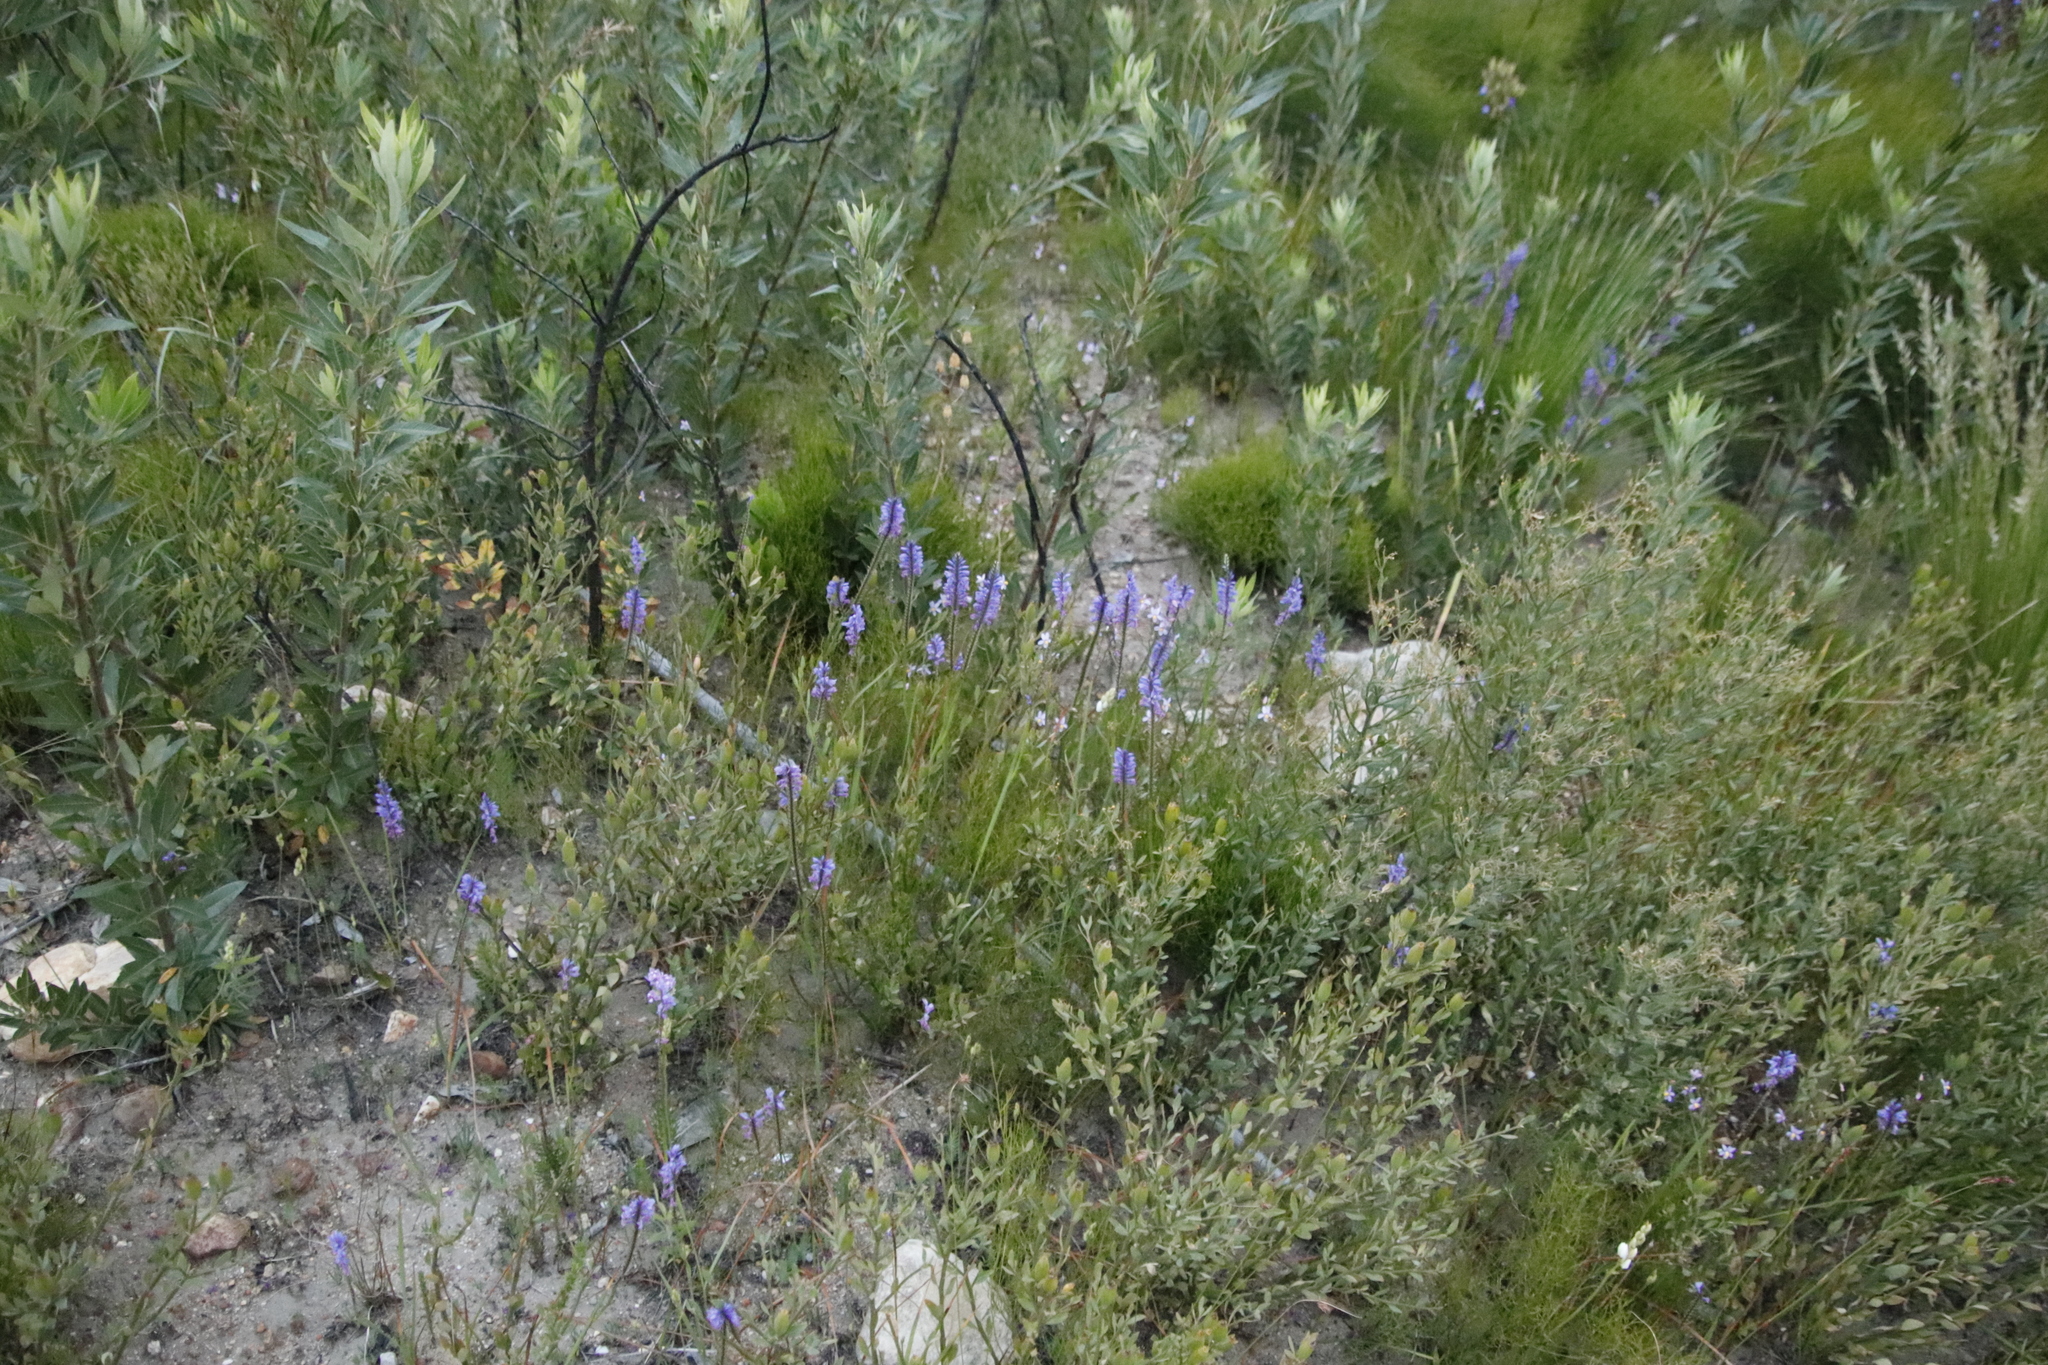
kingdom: Plantae
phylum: Tracheophyta
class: Liliopsida
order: Asparagales
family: Iridaceae
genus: Micranthus
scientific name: Micranthus plantagineus
